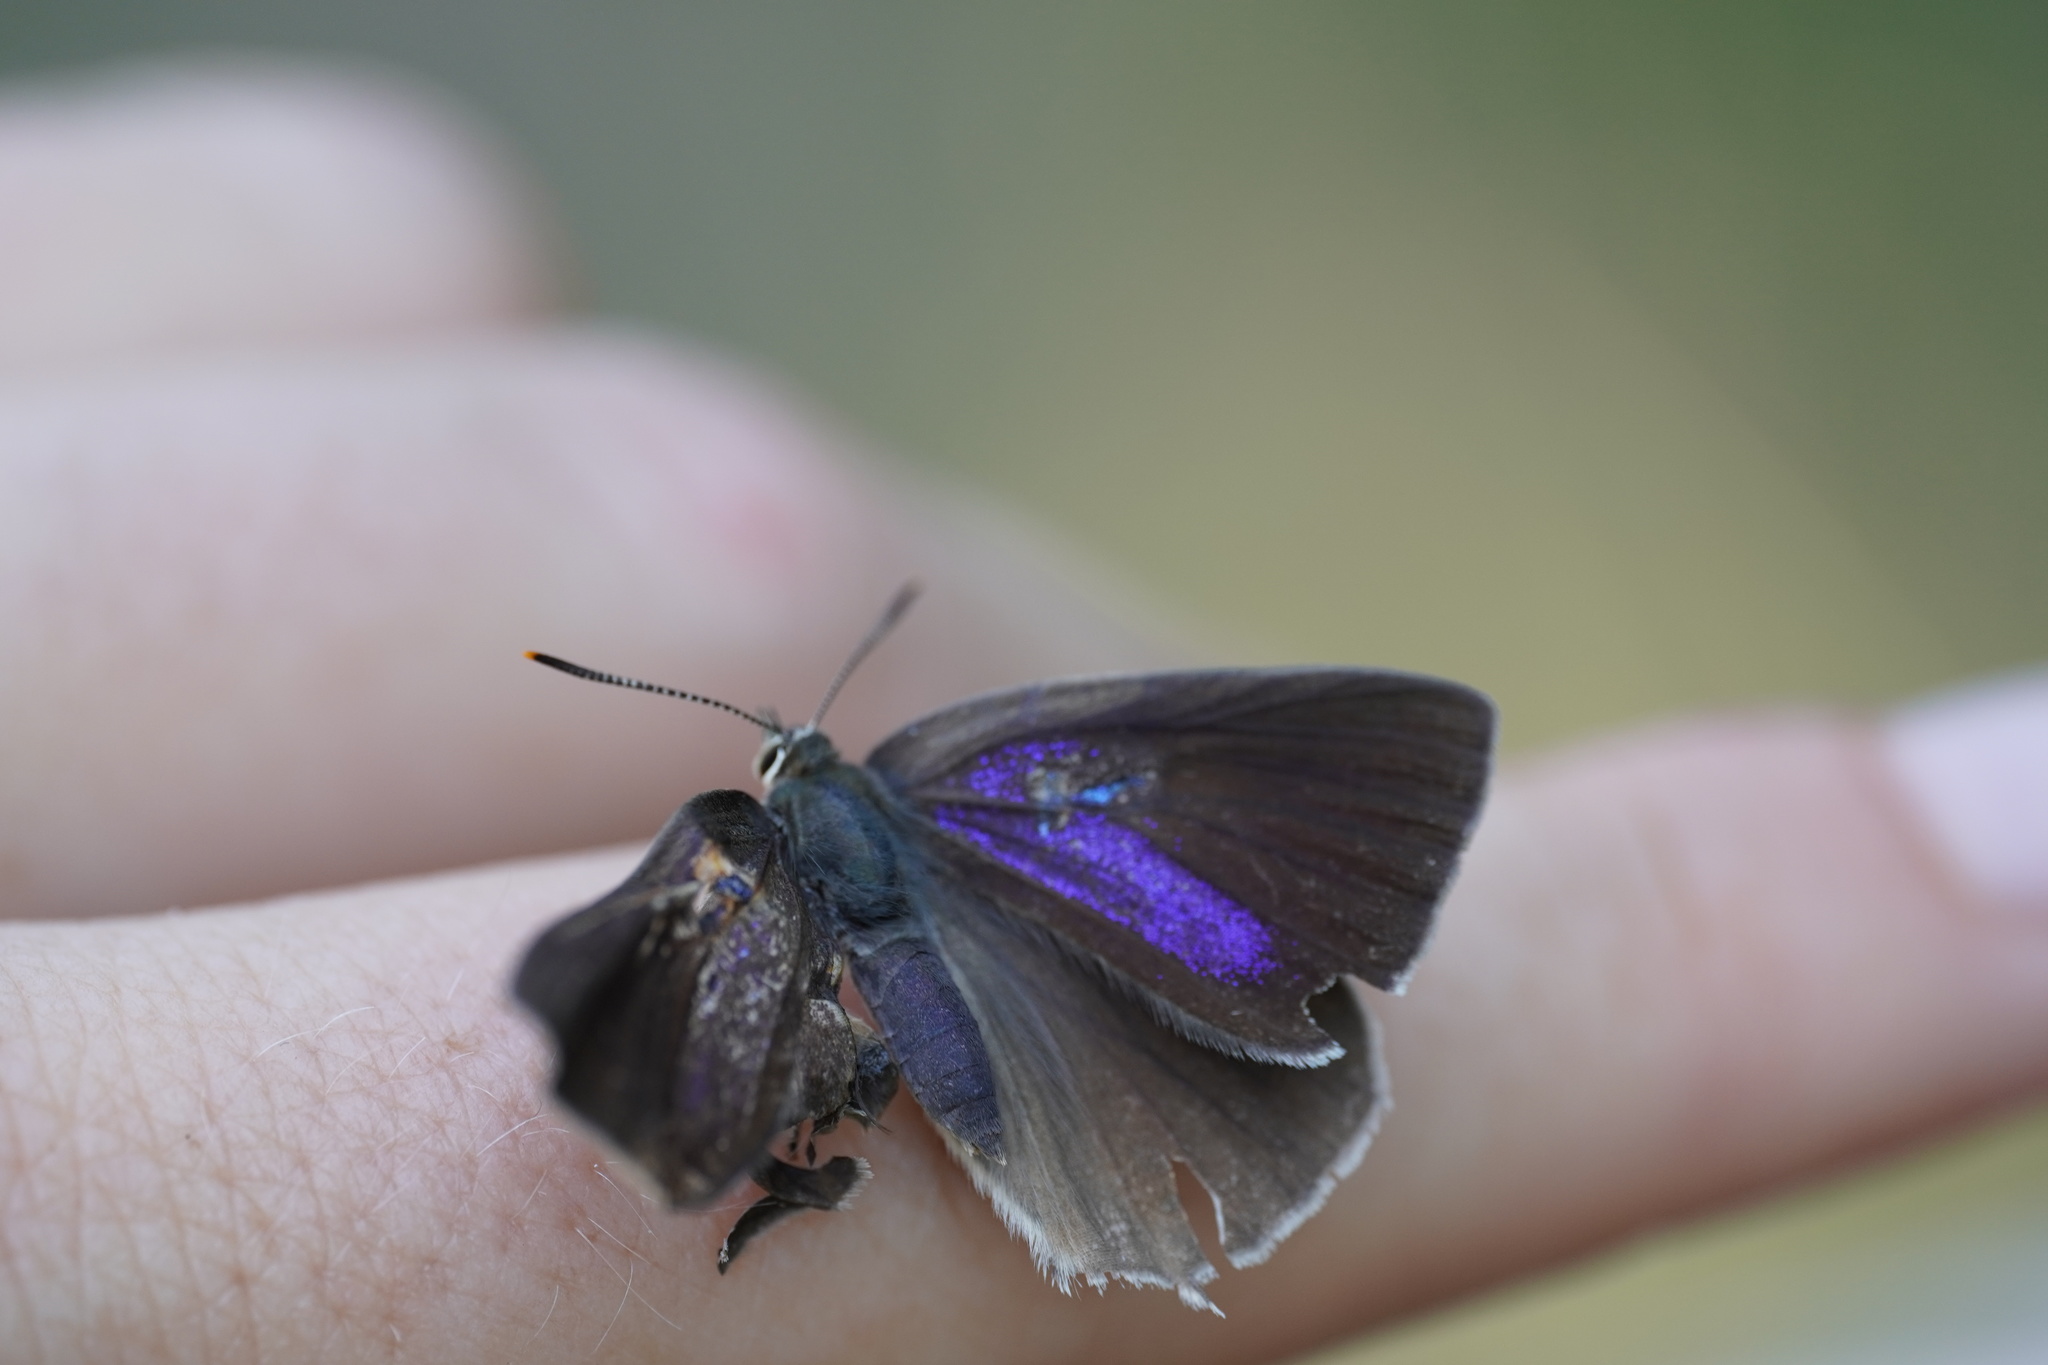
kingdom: Animalia
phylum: Arthropoda
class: Insecta
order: Lepidoptera
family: Lycaenidae
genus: Quercusia
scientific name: Quercusia quercus
